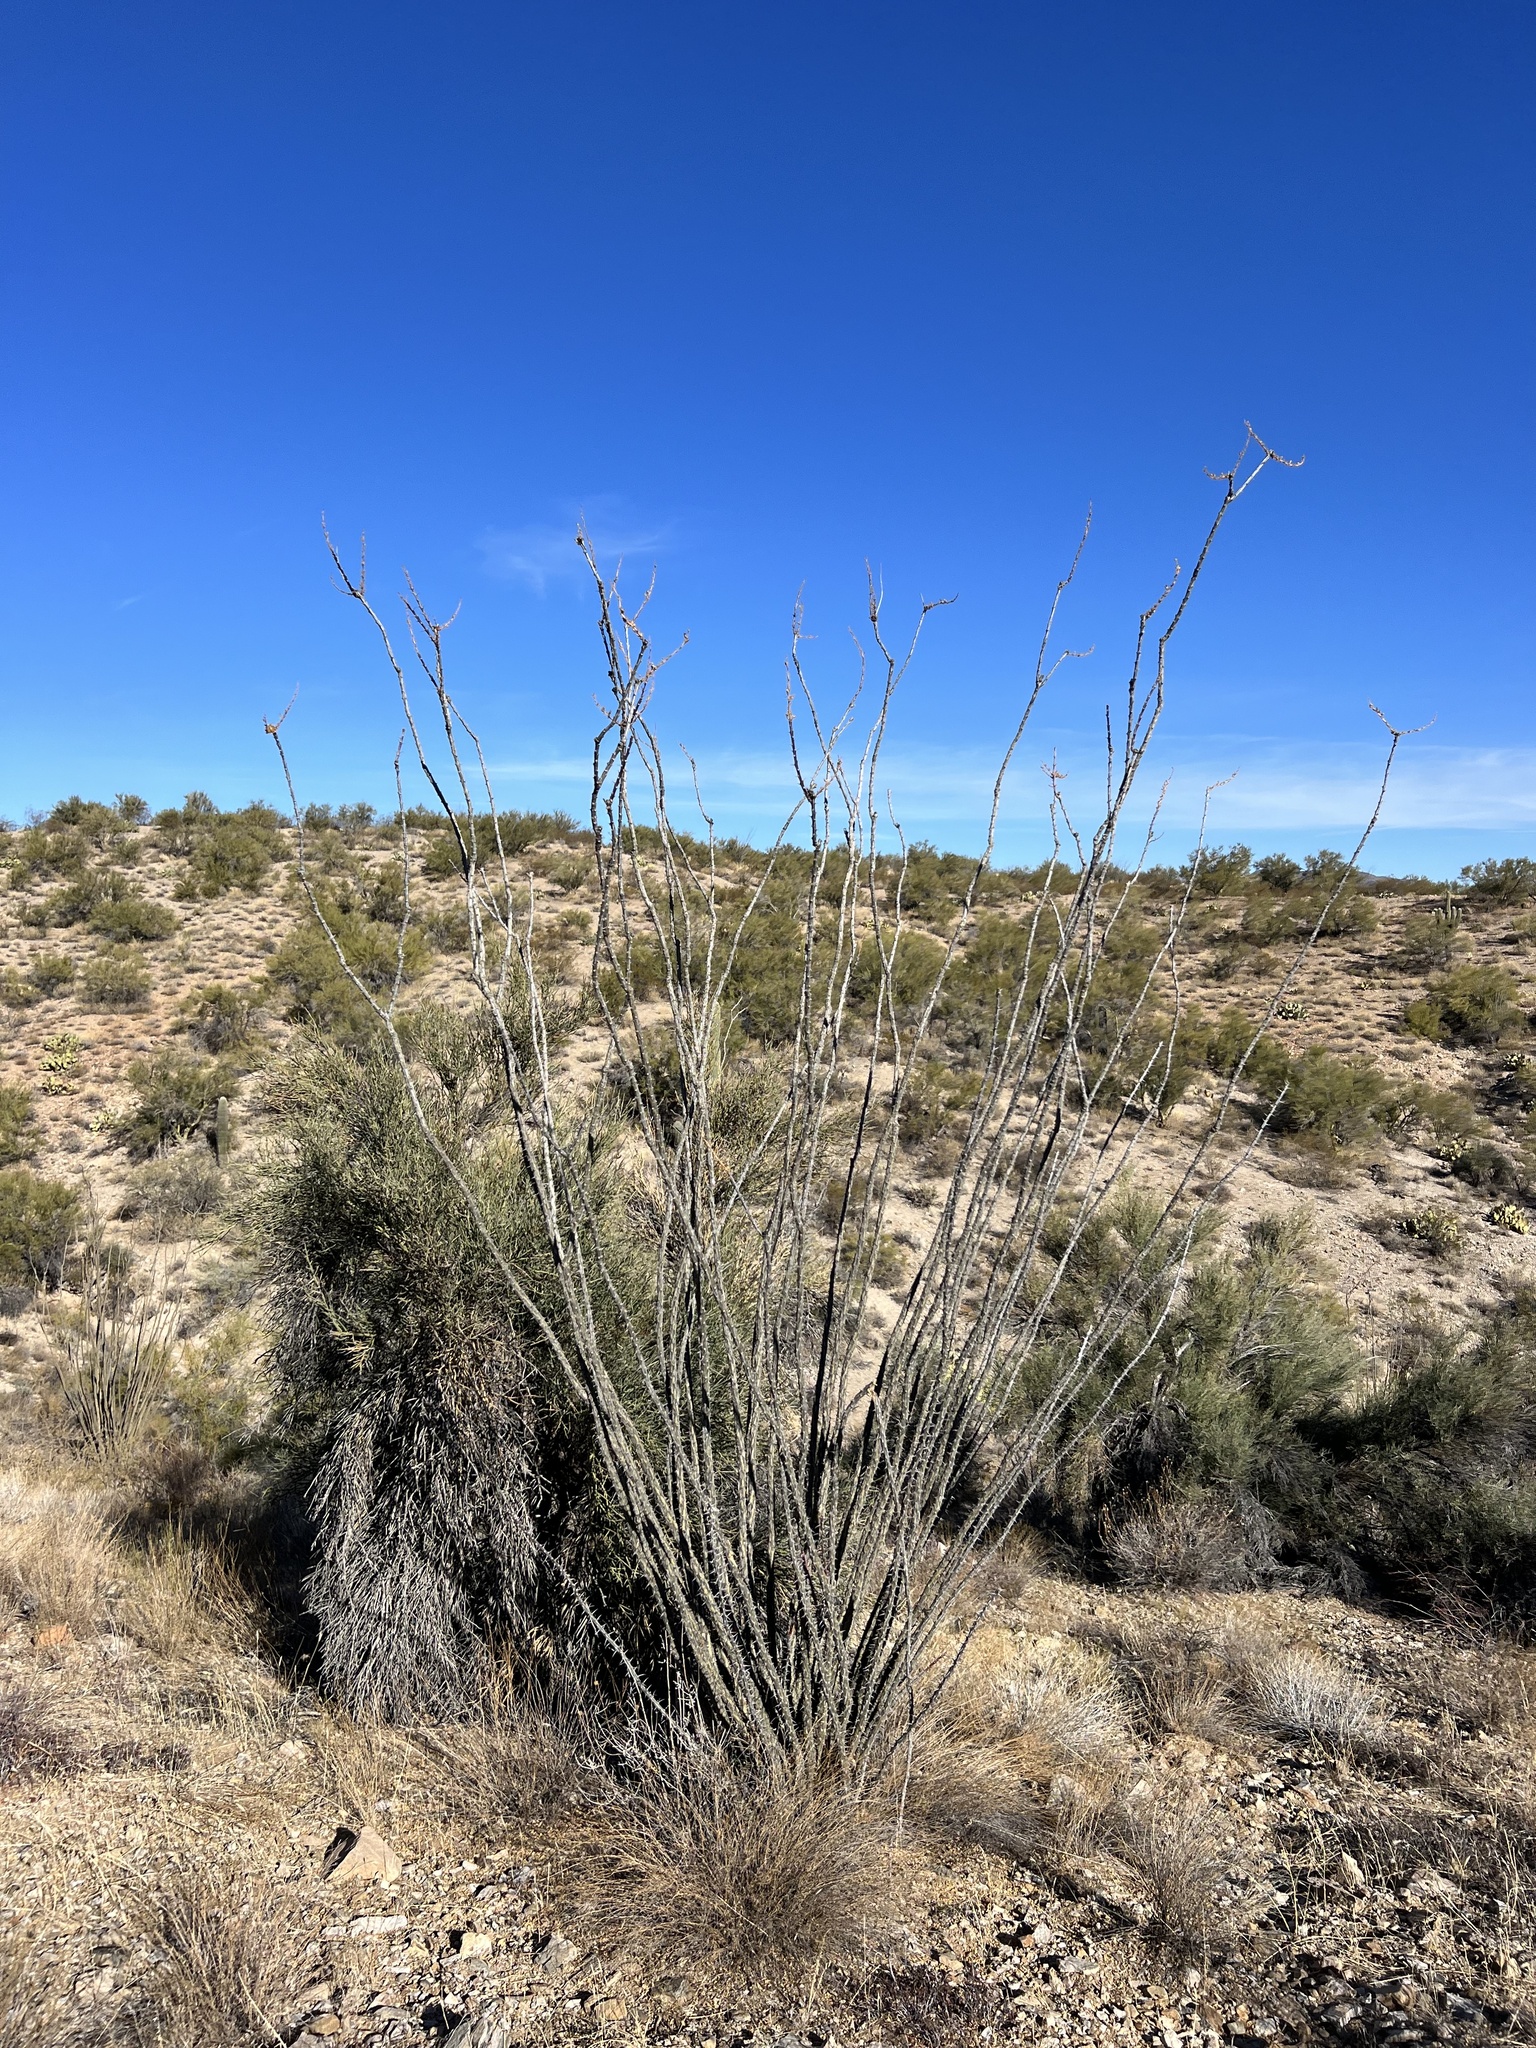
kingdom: Plantae
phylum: Tracheophyta
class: Magnoliopsida
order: Ericales
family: Fouquieriaceae
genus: Fouquieria
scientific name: Fouquieria splendens
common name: Vine-cactus
